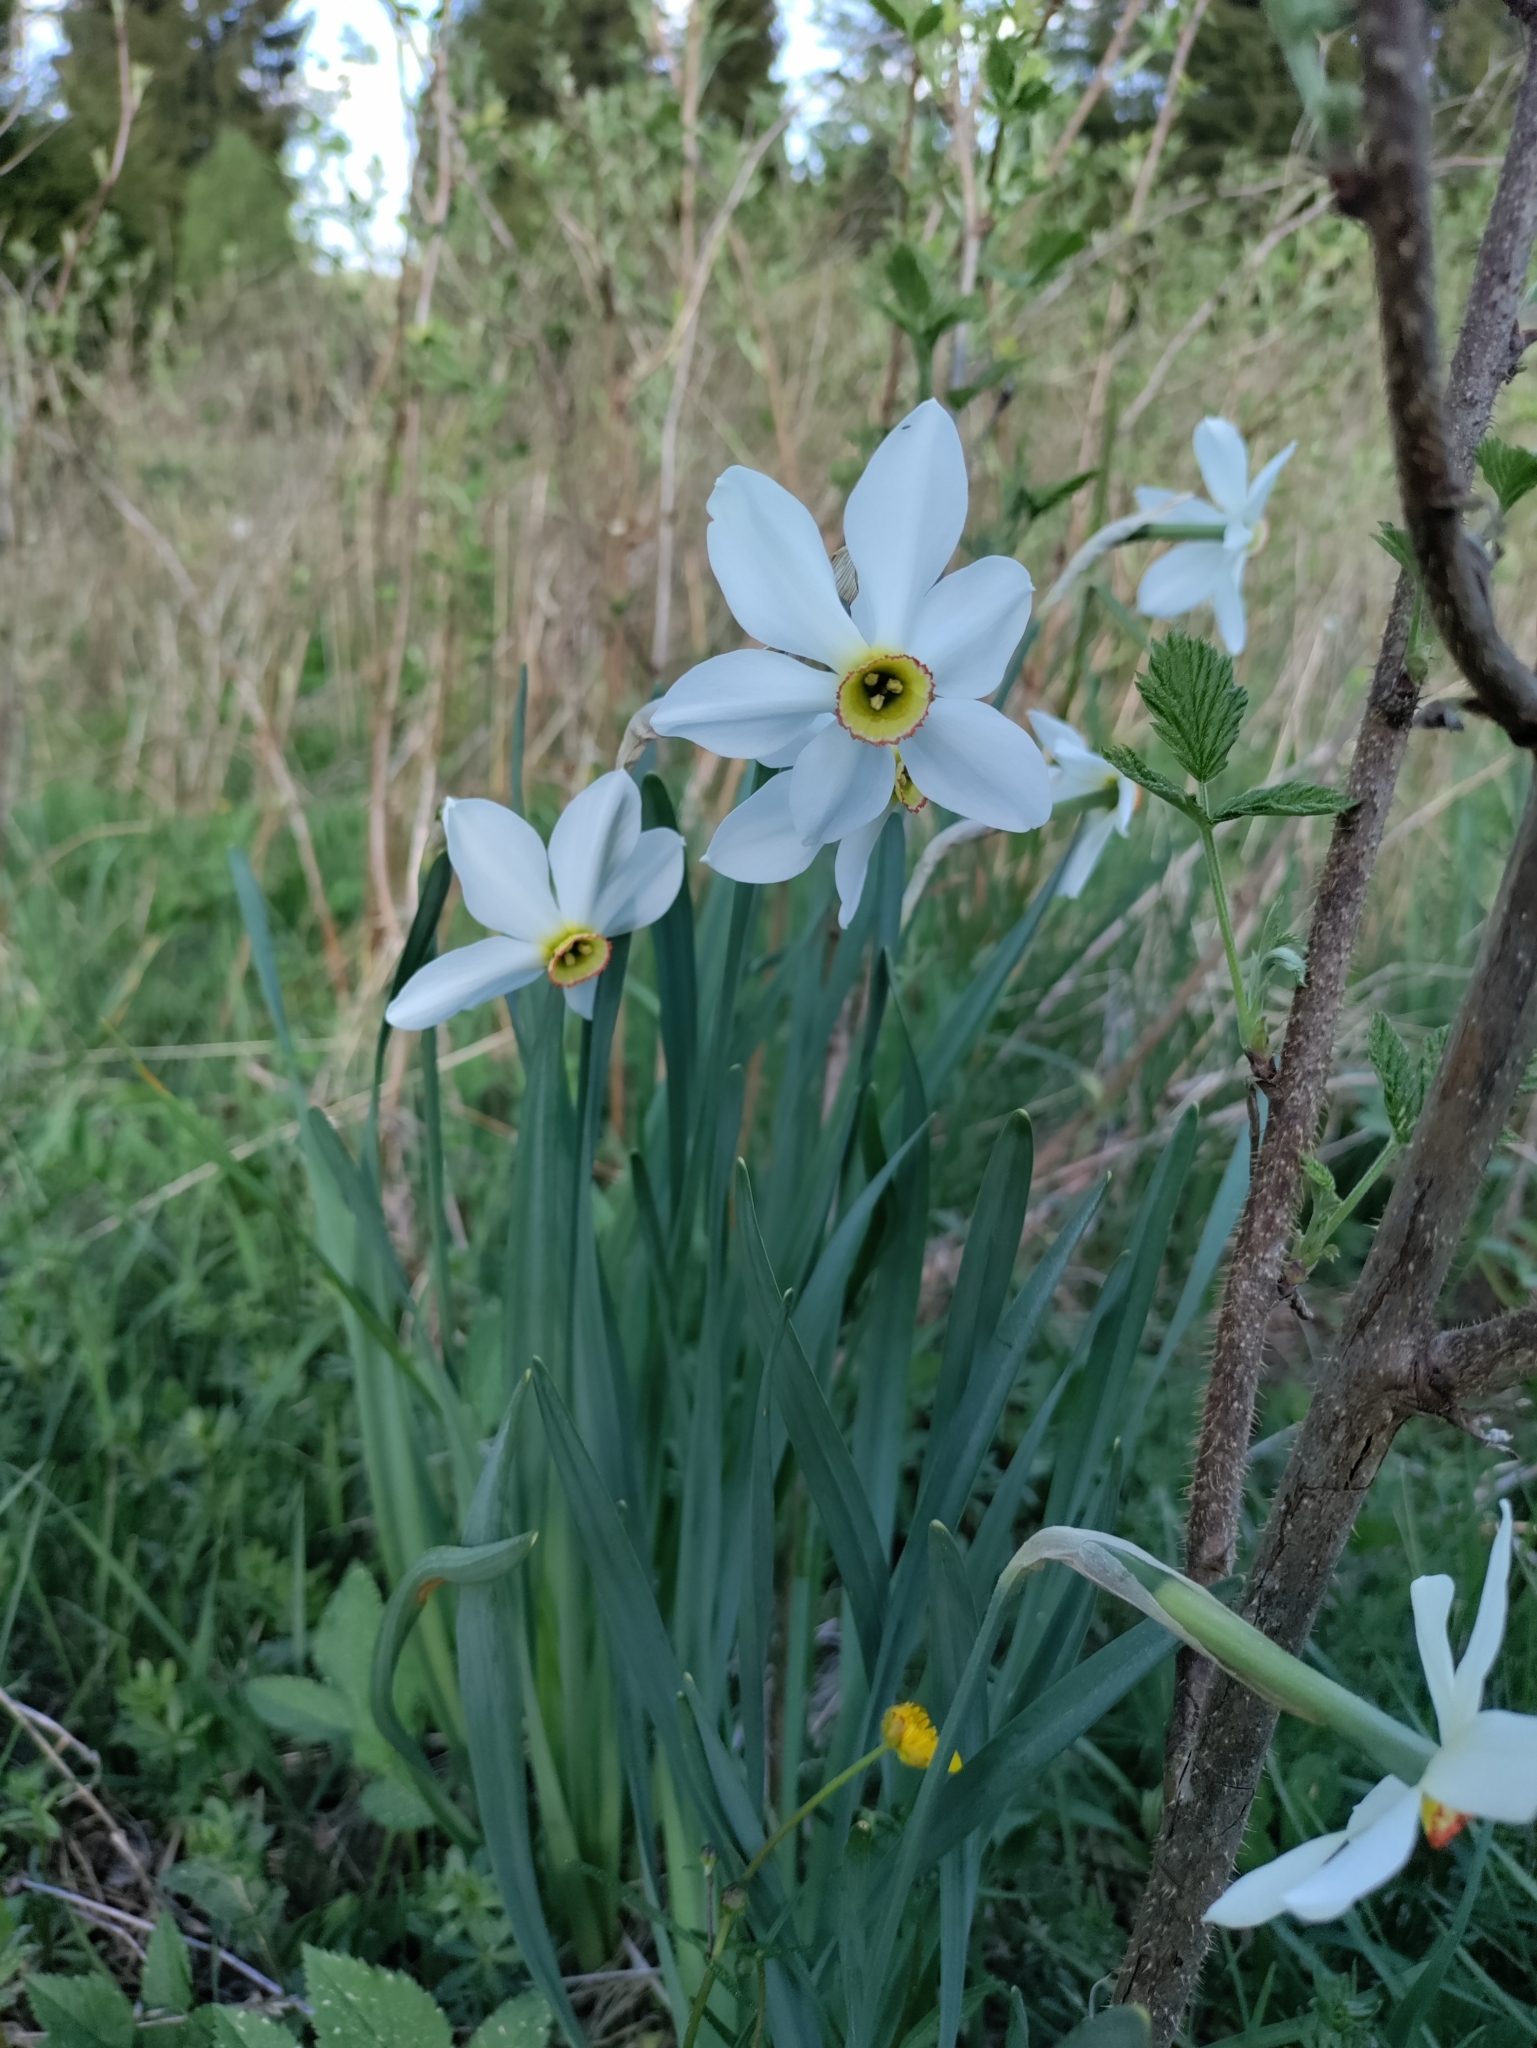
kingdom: Plantae
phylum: Tracheophyta
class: Liliopsida
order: Asparagales
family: Amaryllidaceae
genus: Narcissus
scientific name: Narcissus poeticus
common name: Pheasant's-eye daffodil
